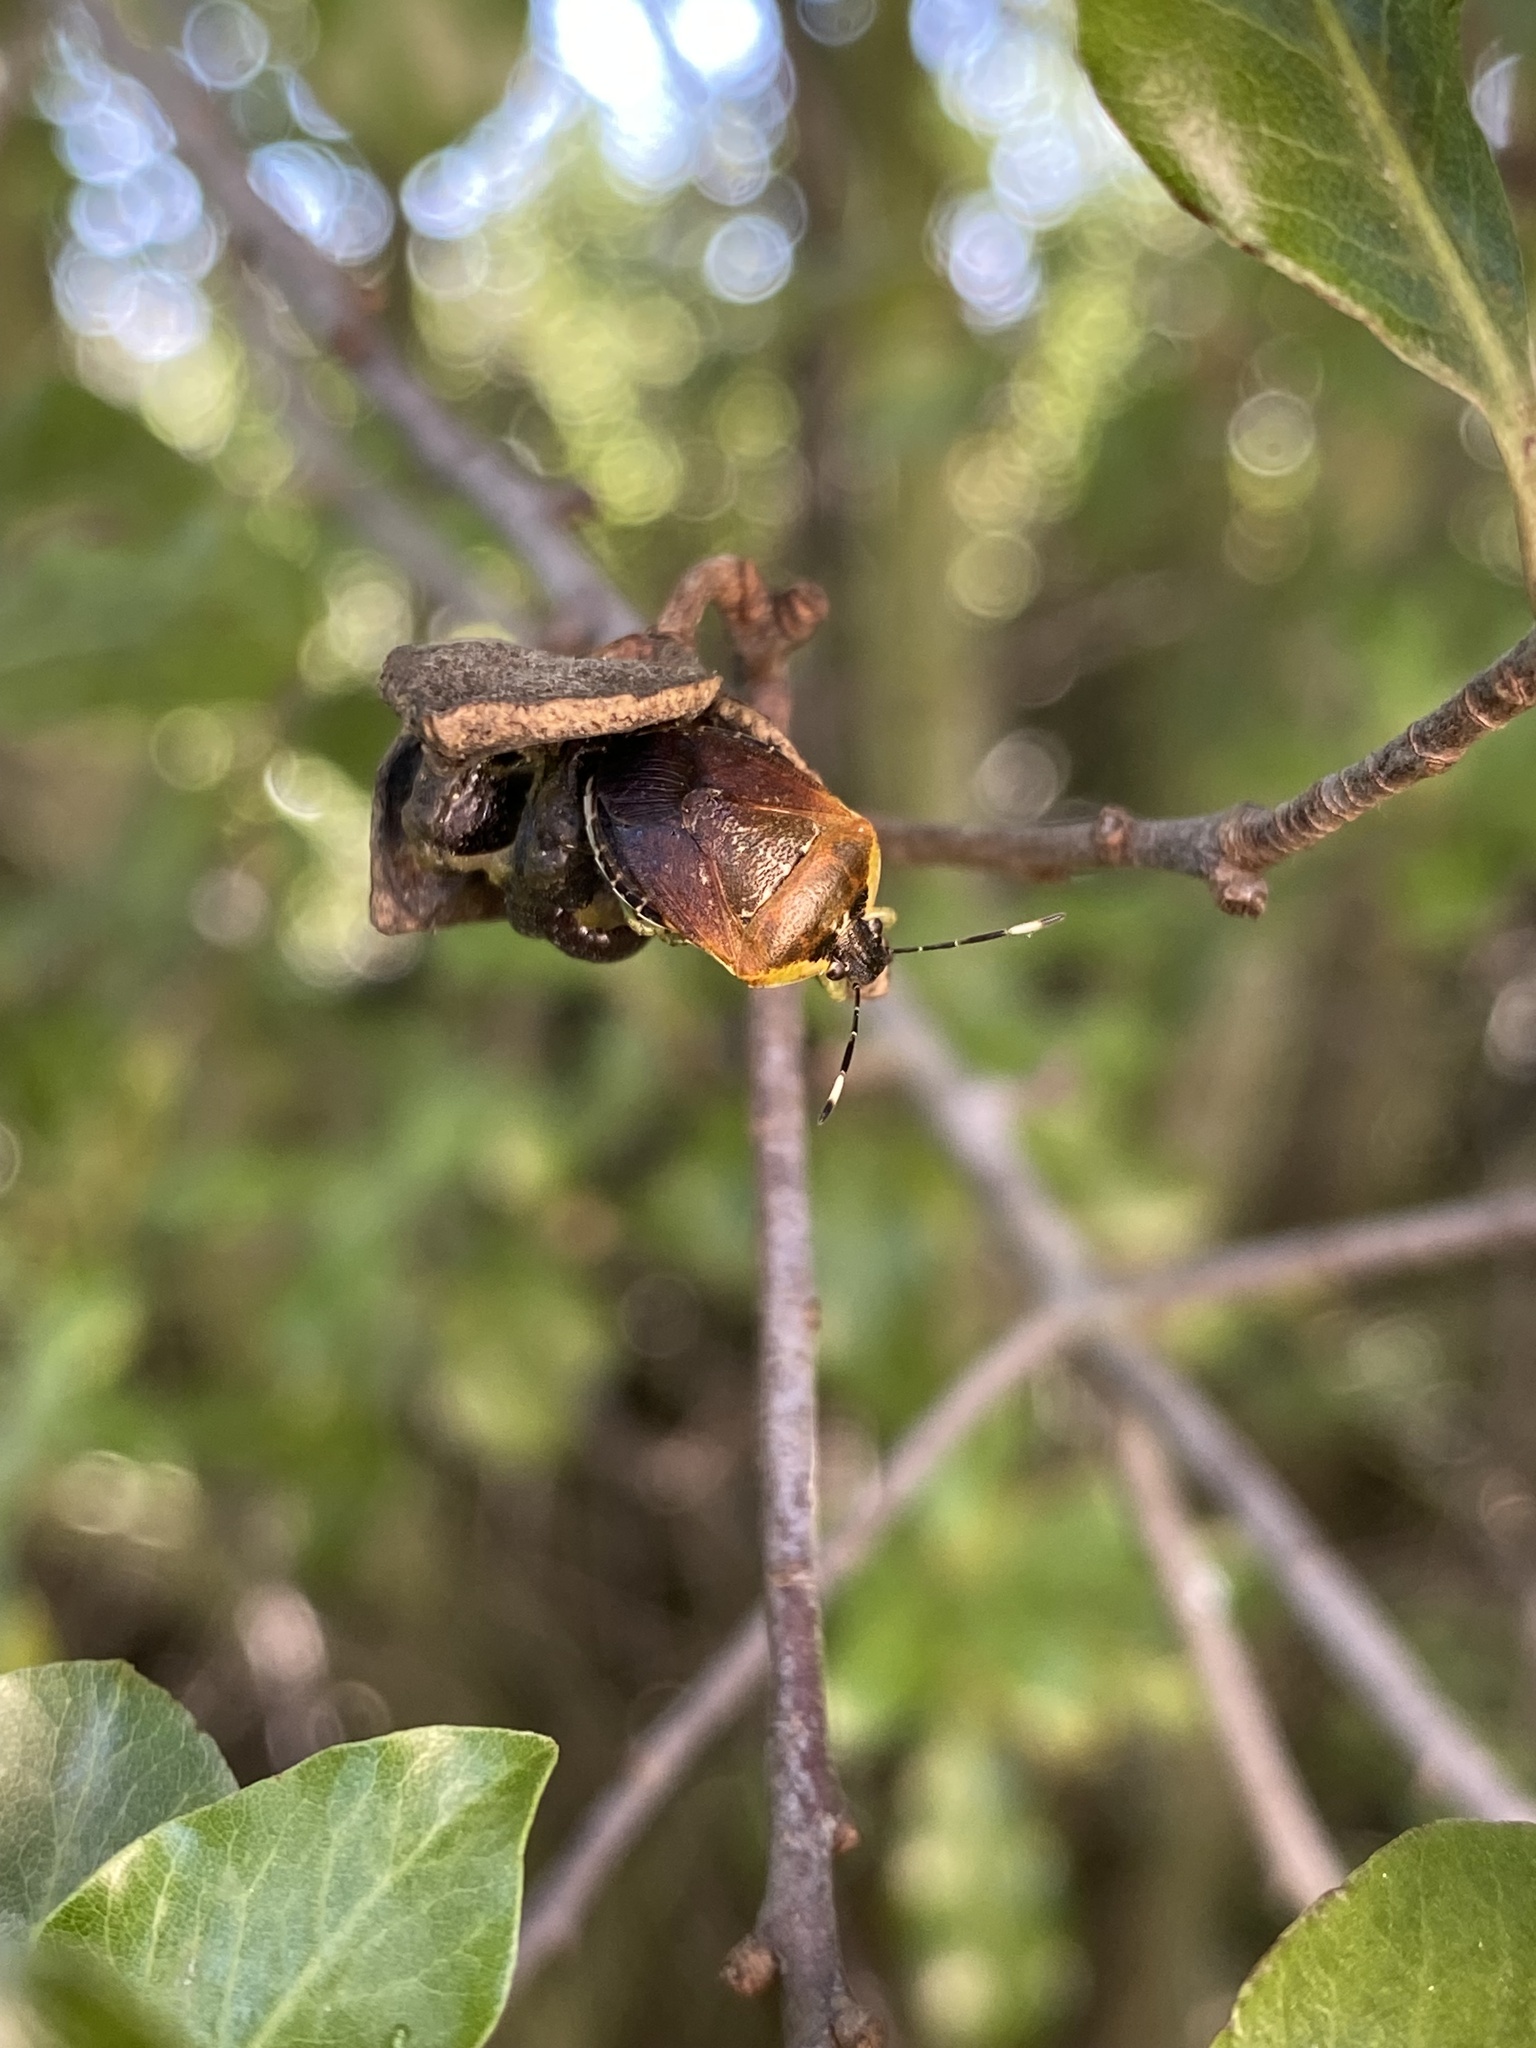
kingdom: Animalia
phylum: Arthropoda
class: Insecta
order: Hemiptera
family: Pentatomidae
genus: Monteithiella
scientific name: Monteithiella
